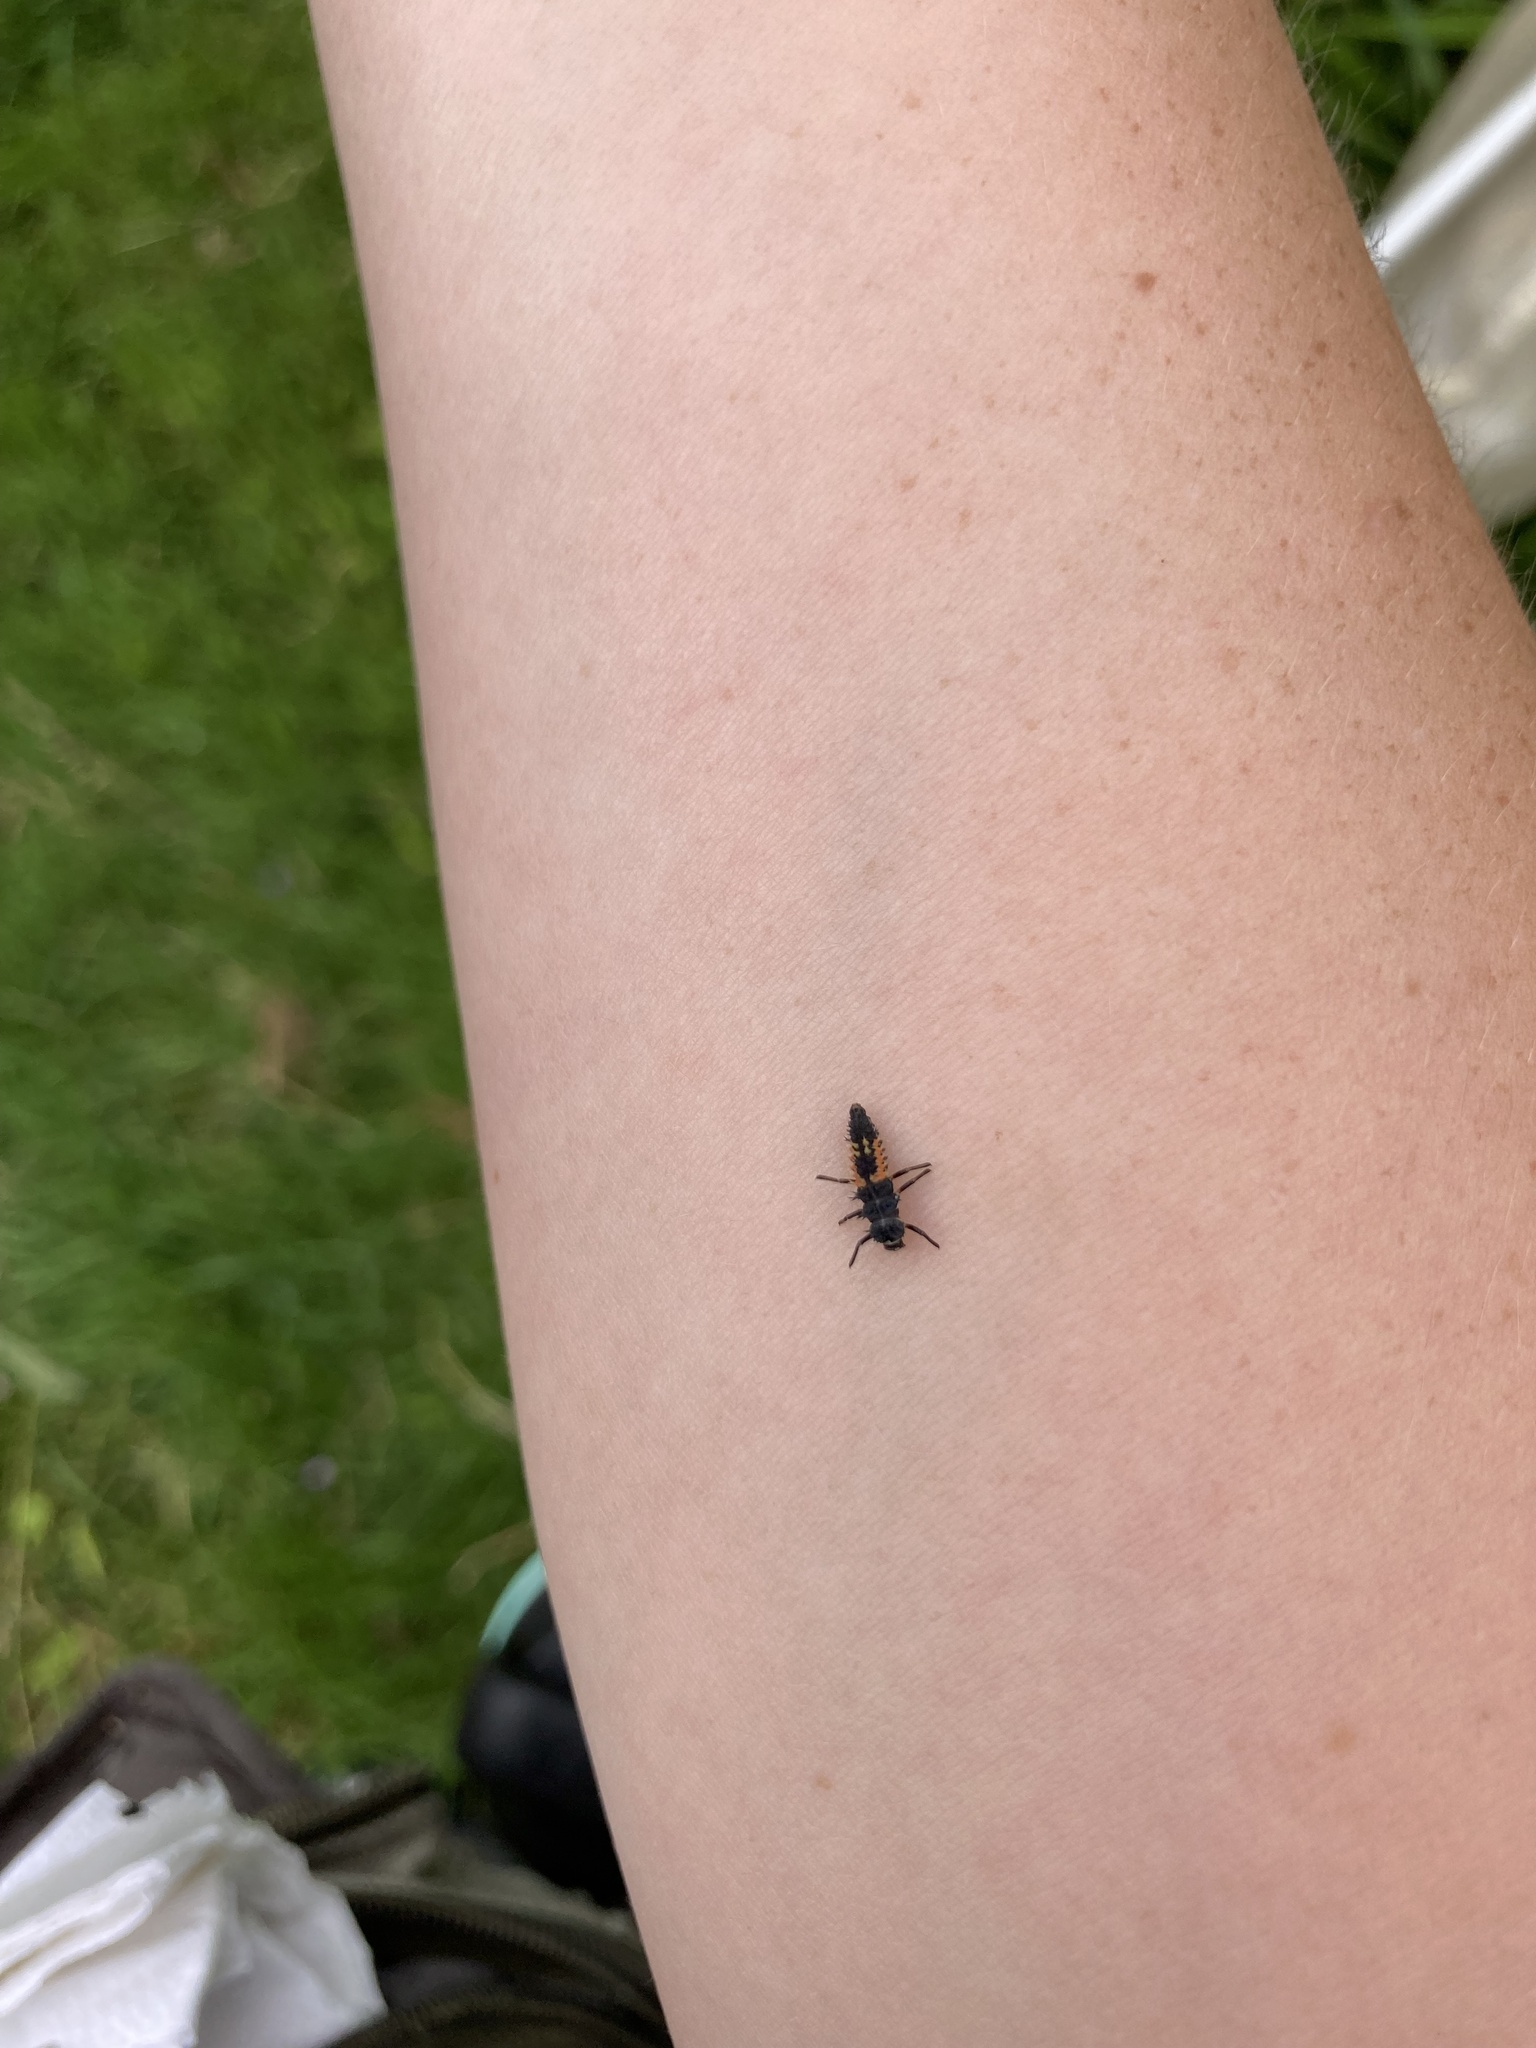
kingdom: Animalia
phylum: Arthropoda
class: Insecta
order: Coleoptera
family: Coccinellidae
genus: Harmonia
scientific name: Harmonia axyridis
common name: Harlequin ladybird
